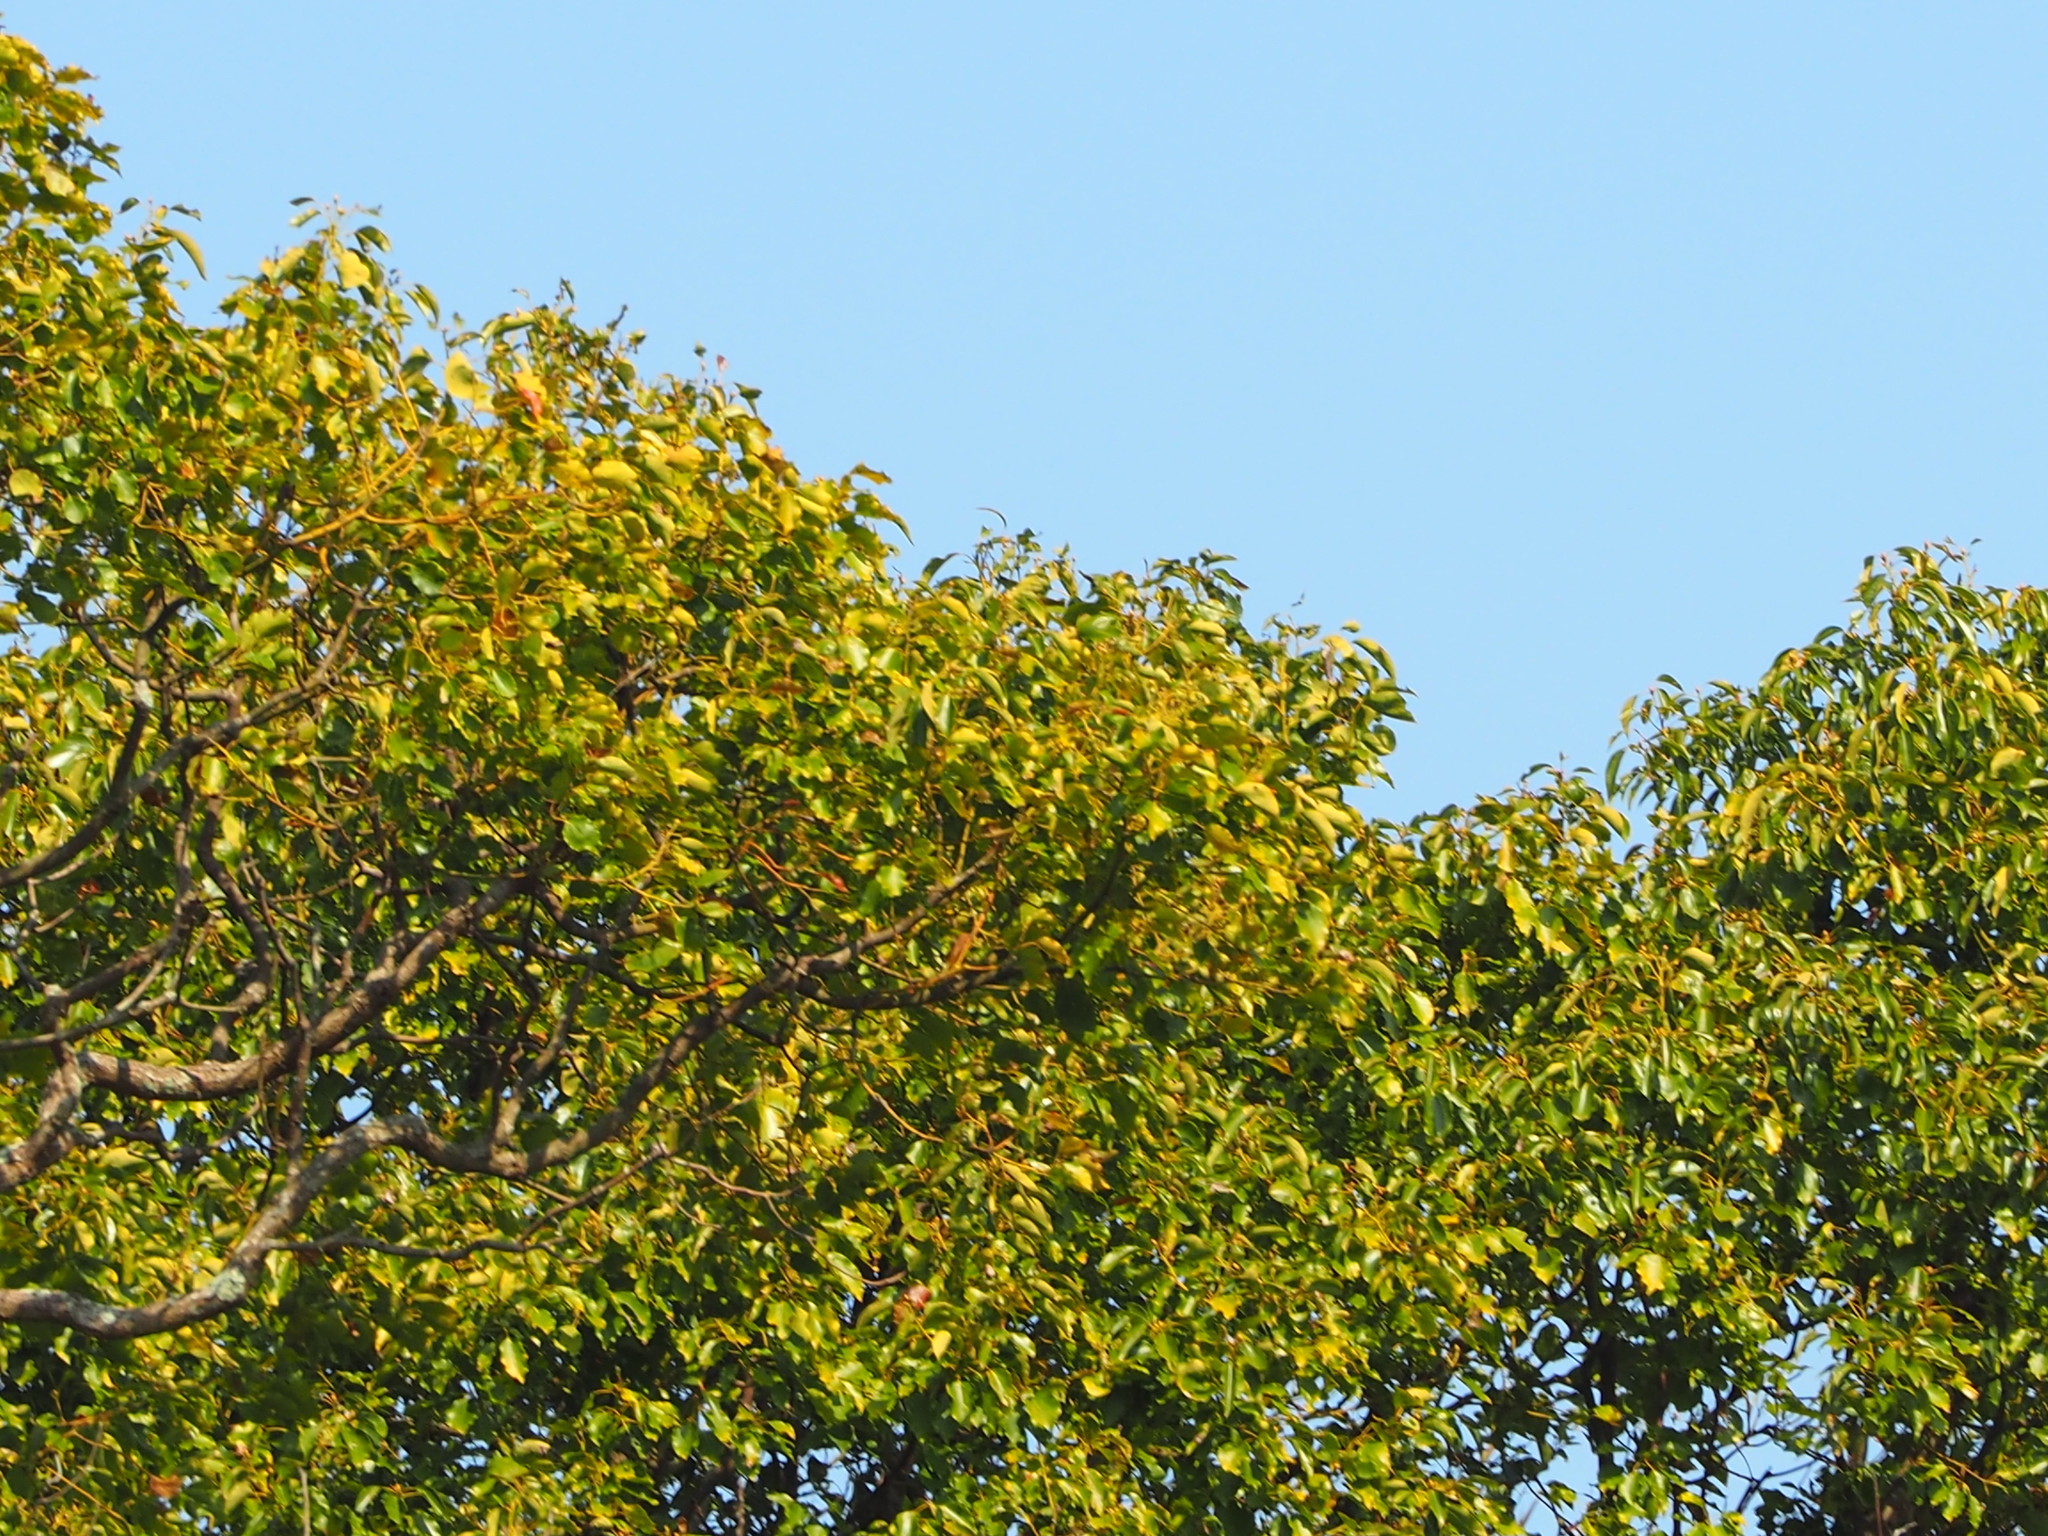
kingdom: Plantae
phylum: Tracheophyta
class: Magnoliopsida
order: Laurales
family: Lauraceae
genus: Cinnamomum
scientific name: Cinnamomum camphora
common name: Camphortree
